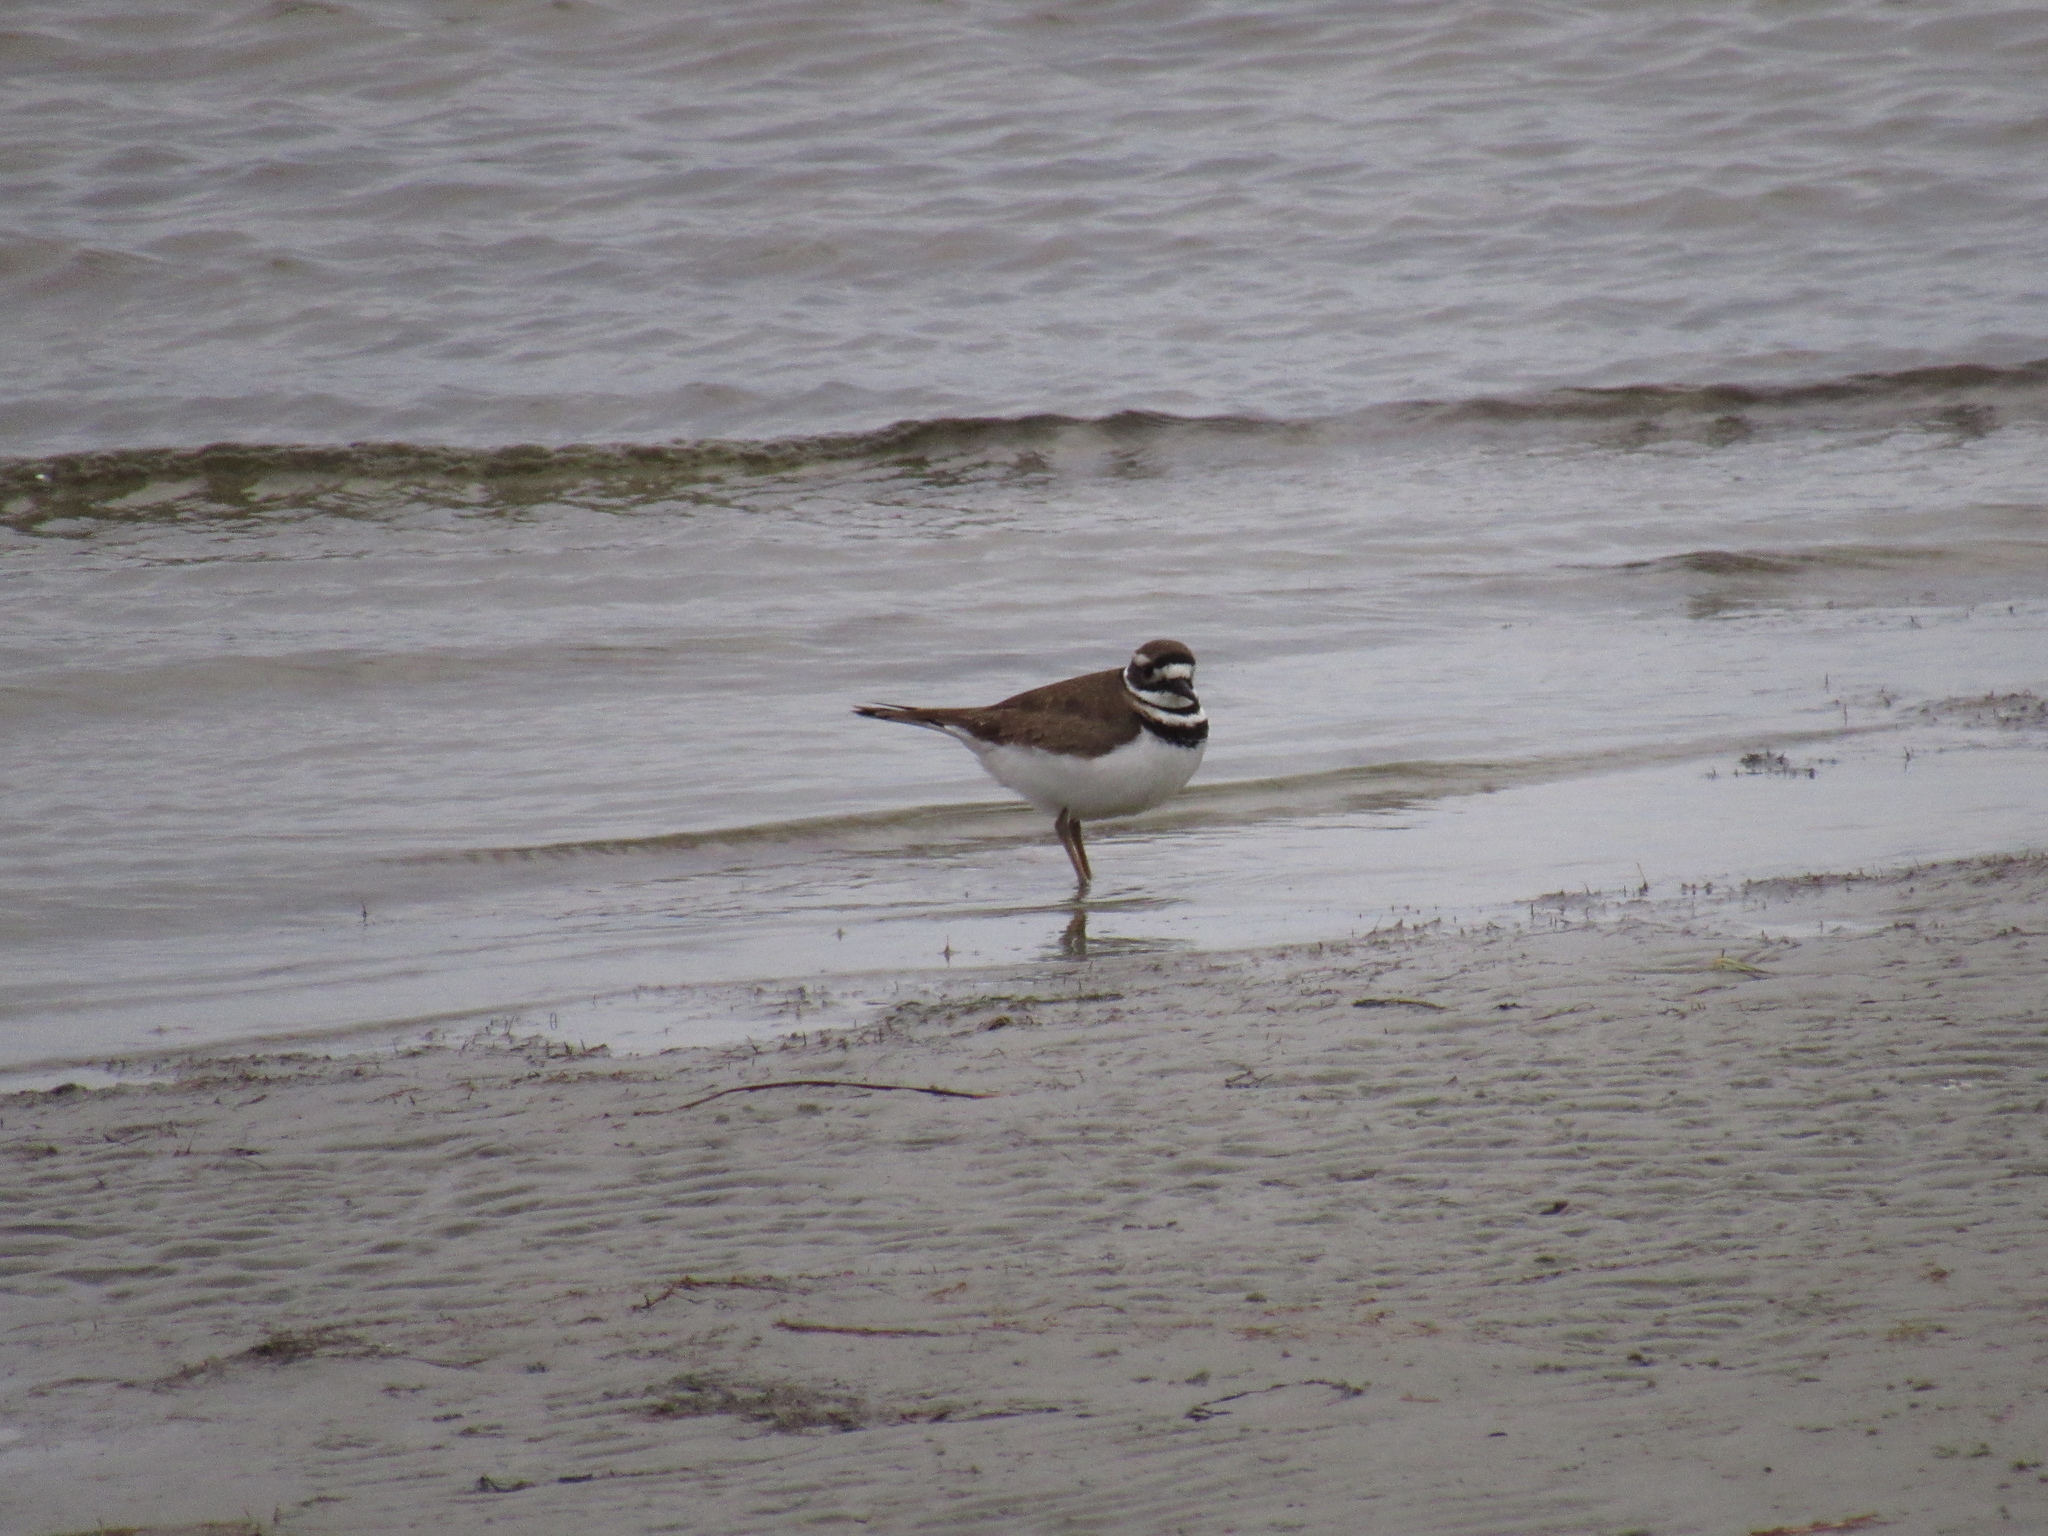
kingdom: Animalia
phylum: Chordata
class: Aves
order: Charadriiformes
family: Charadriidae
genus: Charadrius
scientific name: Charadrius vociferus
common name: Killdeer
